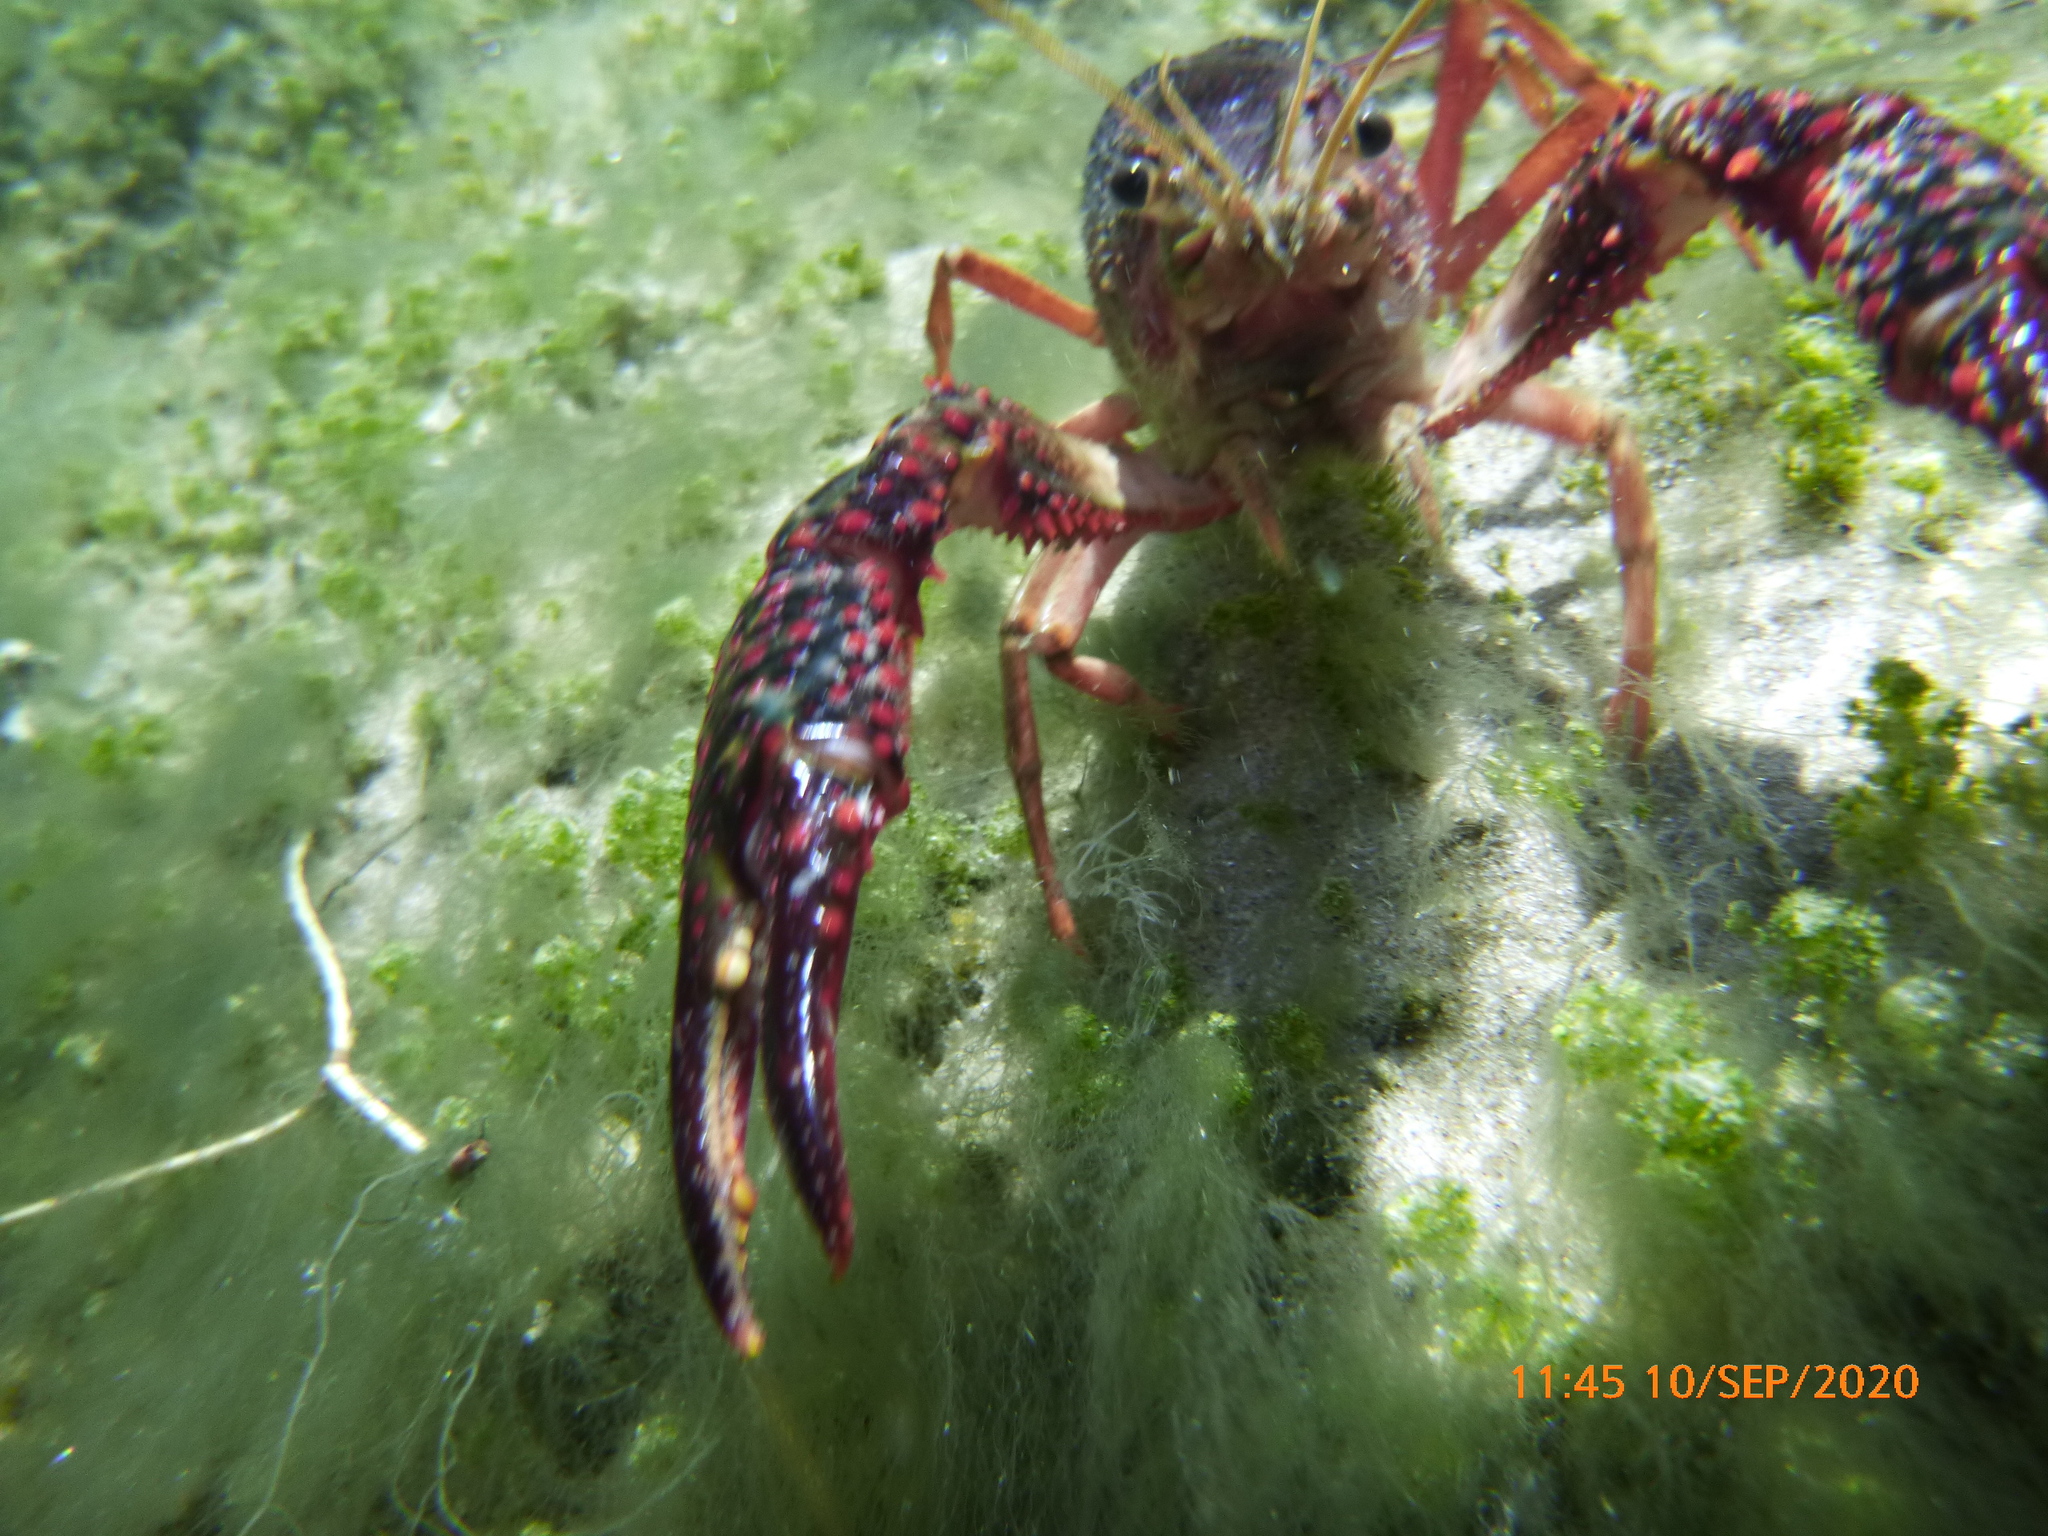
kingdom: Animalia
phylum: Arthropoda
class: Malacostraca
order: Decapoda
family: Cambaridae
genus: Procambarus
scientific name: Procambarus clarkii
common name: Red swamp crayfish
